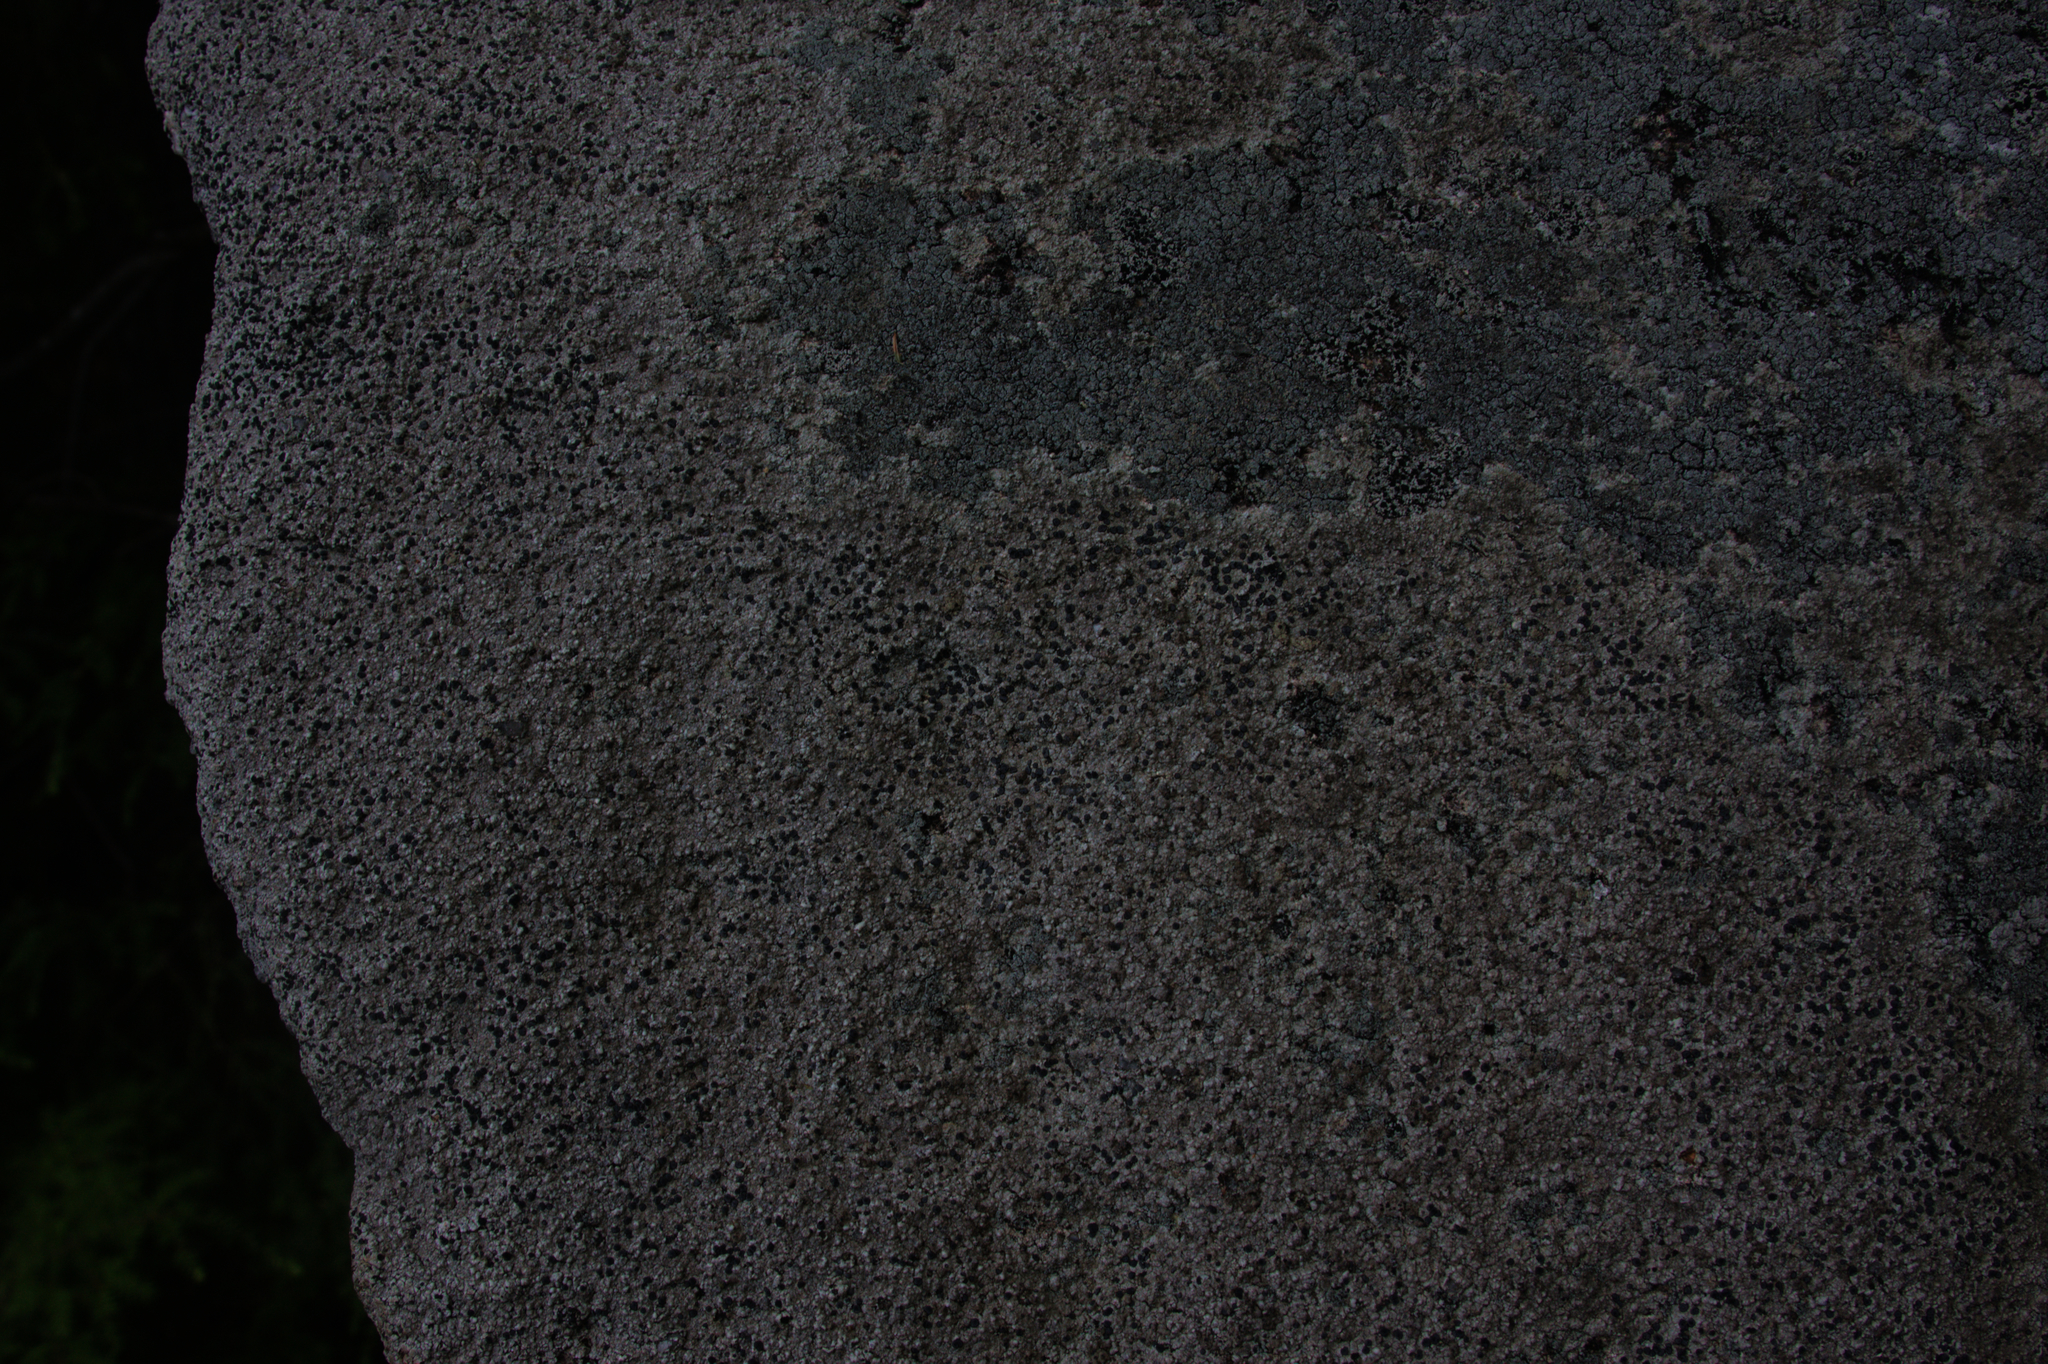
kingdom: Fungi
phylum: Ascomycota
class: Lecanoromycetes
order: Lecideales
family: Lecideaceae
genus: Porpidia
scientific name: Porpidia albocaerulescens
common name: Smokey-eyed boulder lichen
